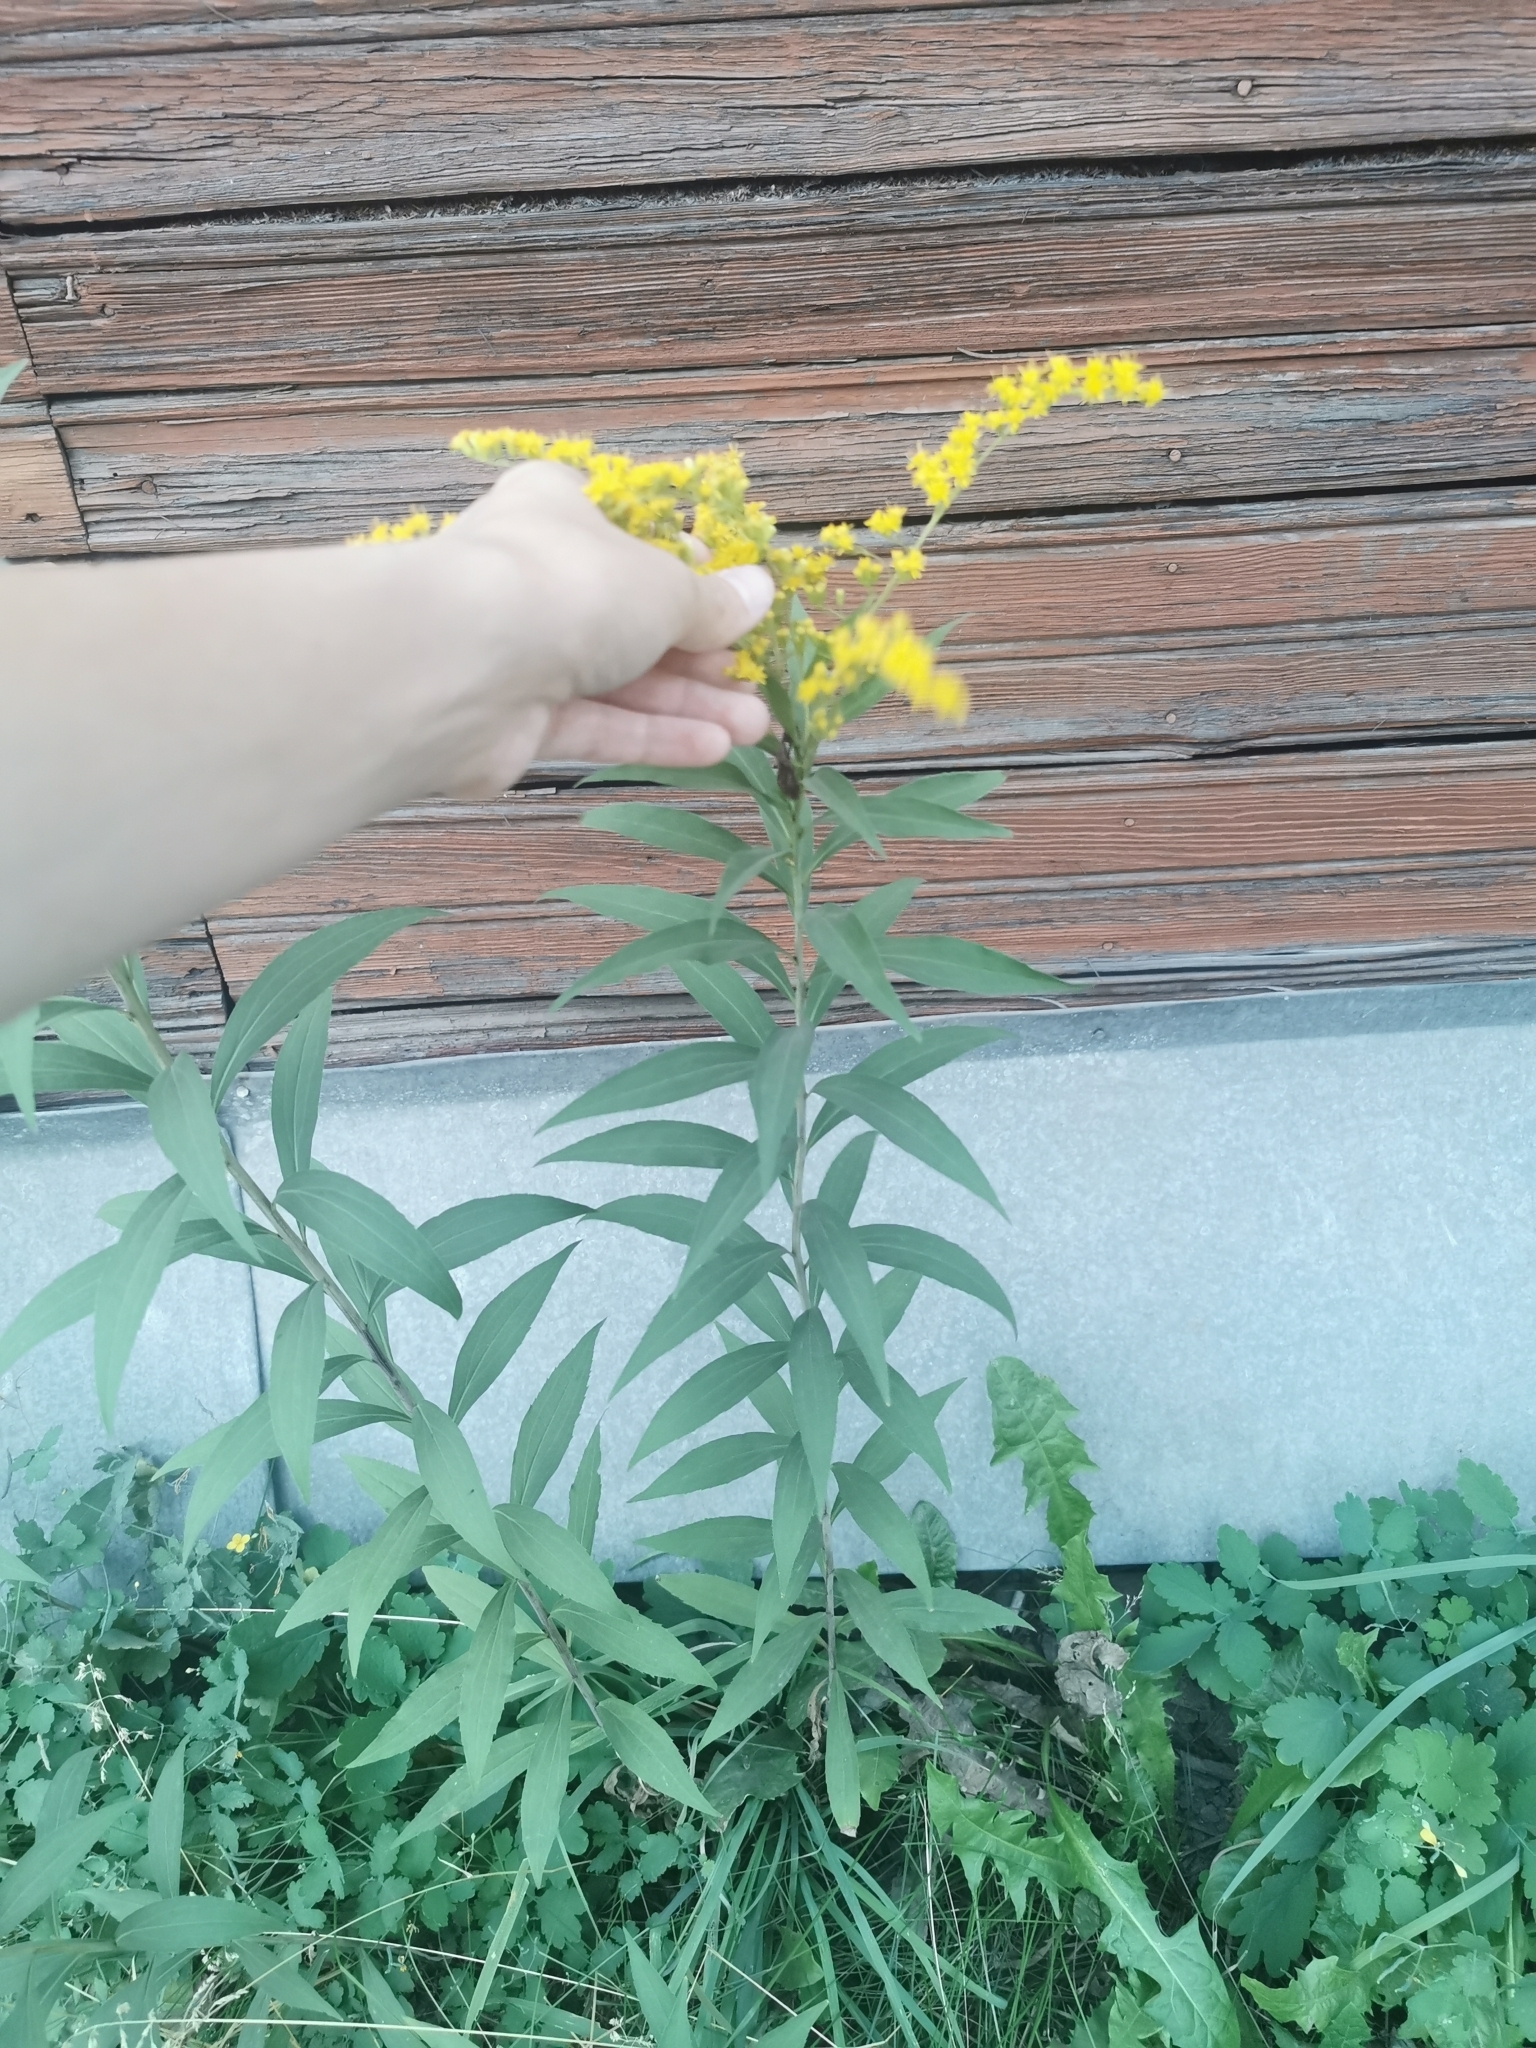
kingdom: Plantae
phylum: Tracheophyta
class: Magnoliopsida
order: Asterales
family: Asteraceae
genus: Solidago
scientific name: Solidago gigantea
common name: Giant goldenrod
